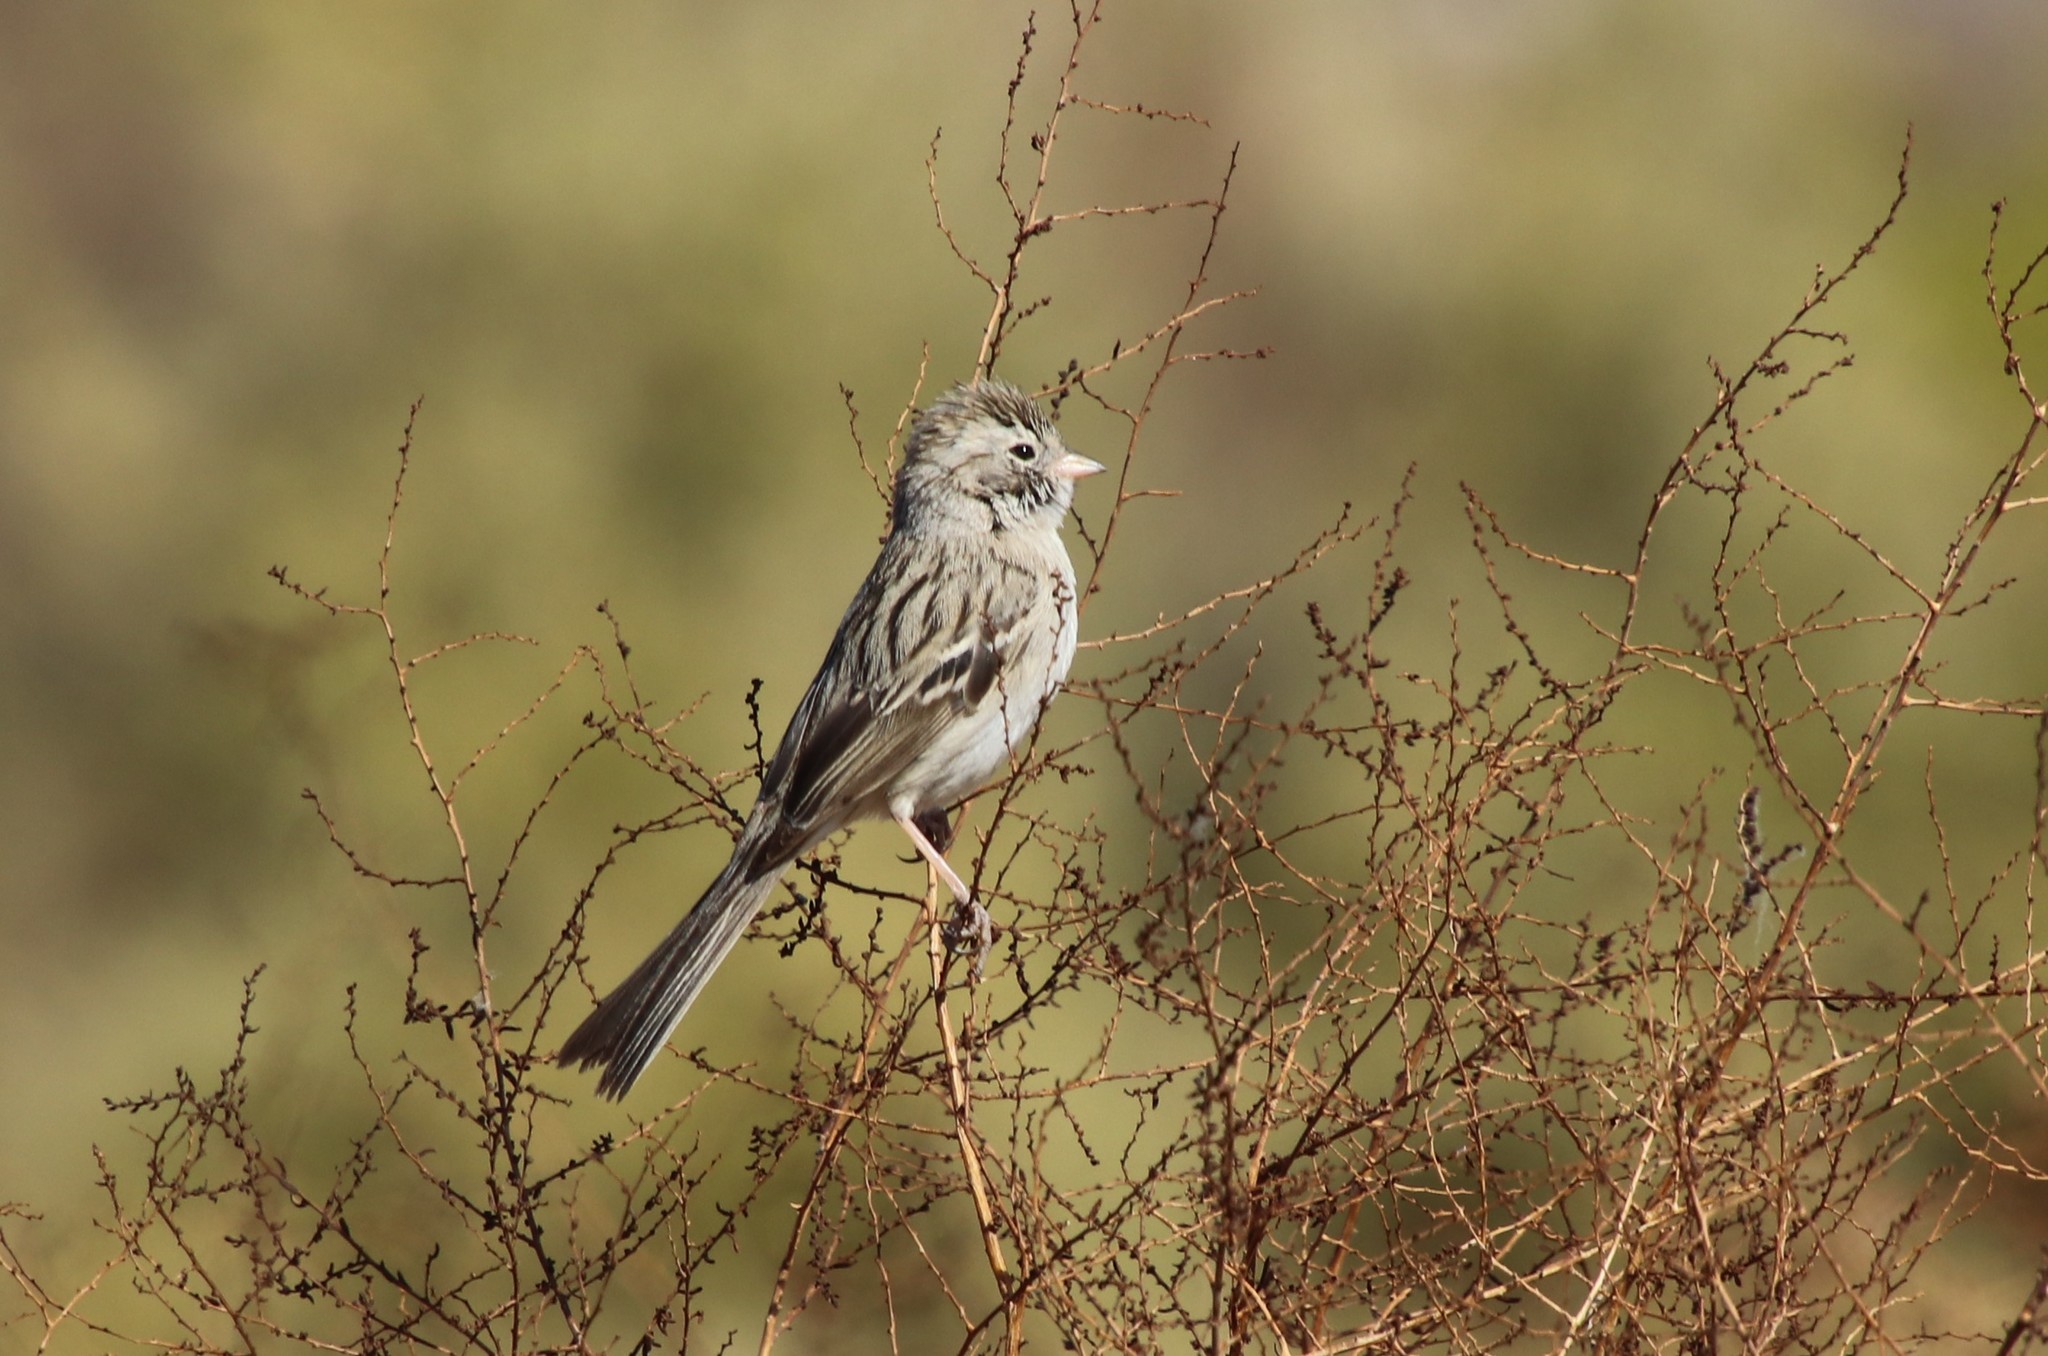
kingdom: Animalia
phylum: Chordata
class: Aves
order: Passeriformes
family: Passerellidae
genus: Spizella
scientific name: Spizella breweri
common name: Brewer's sparrow
